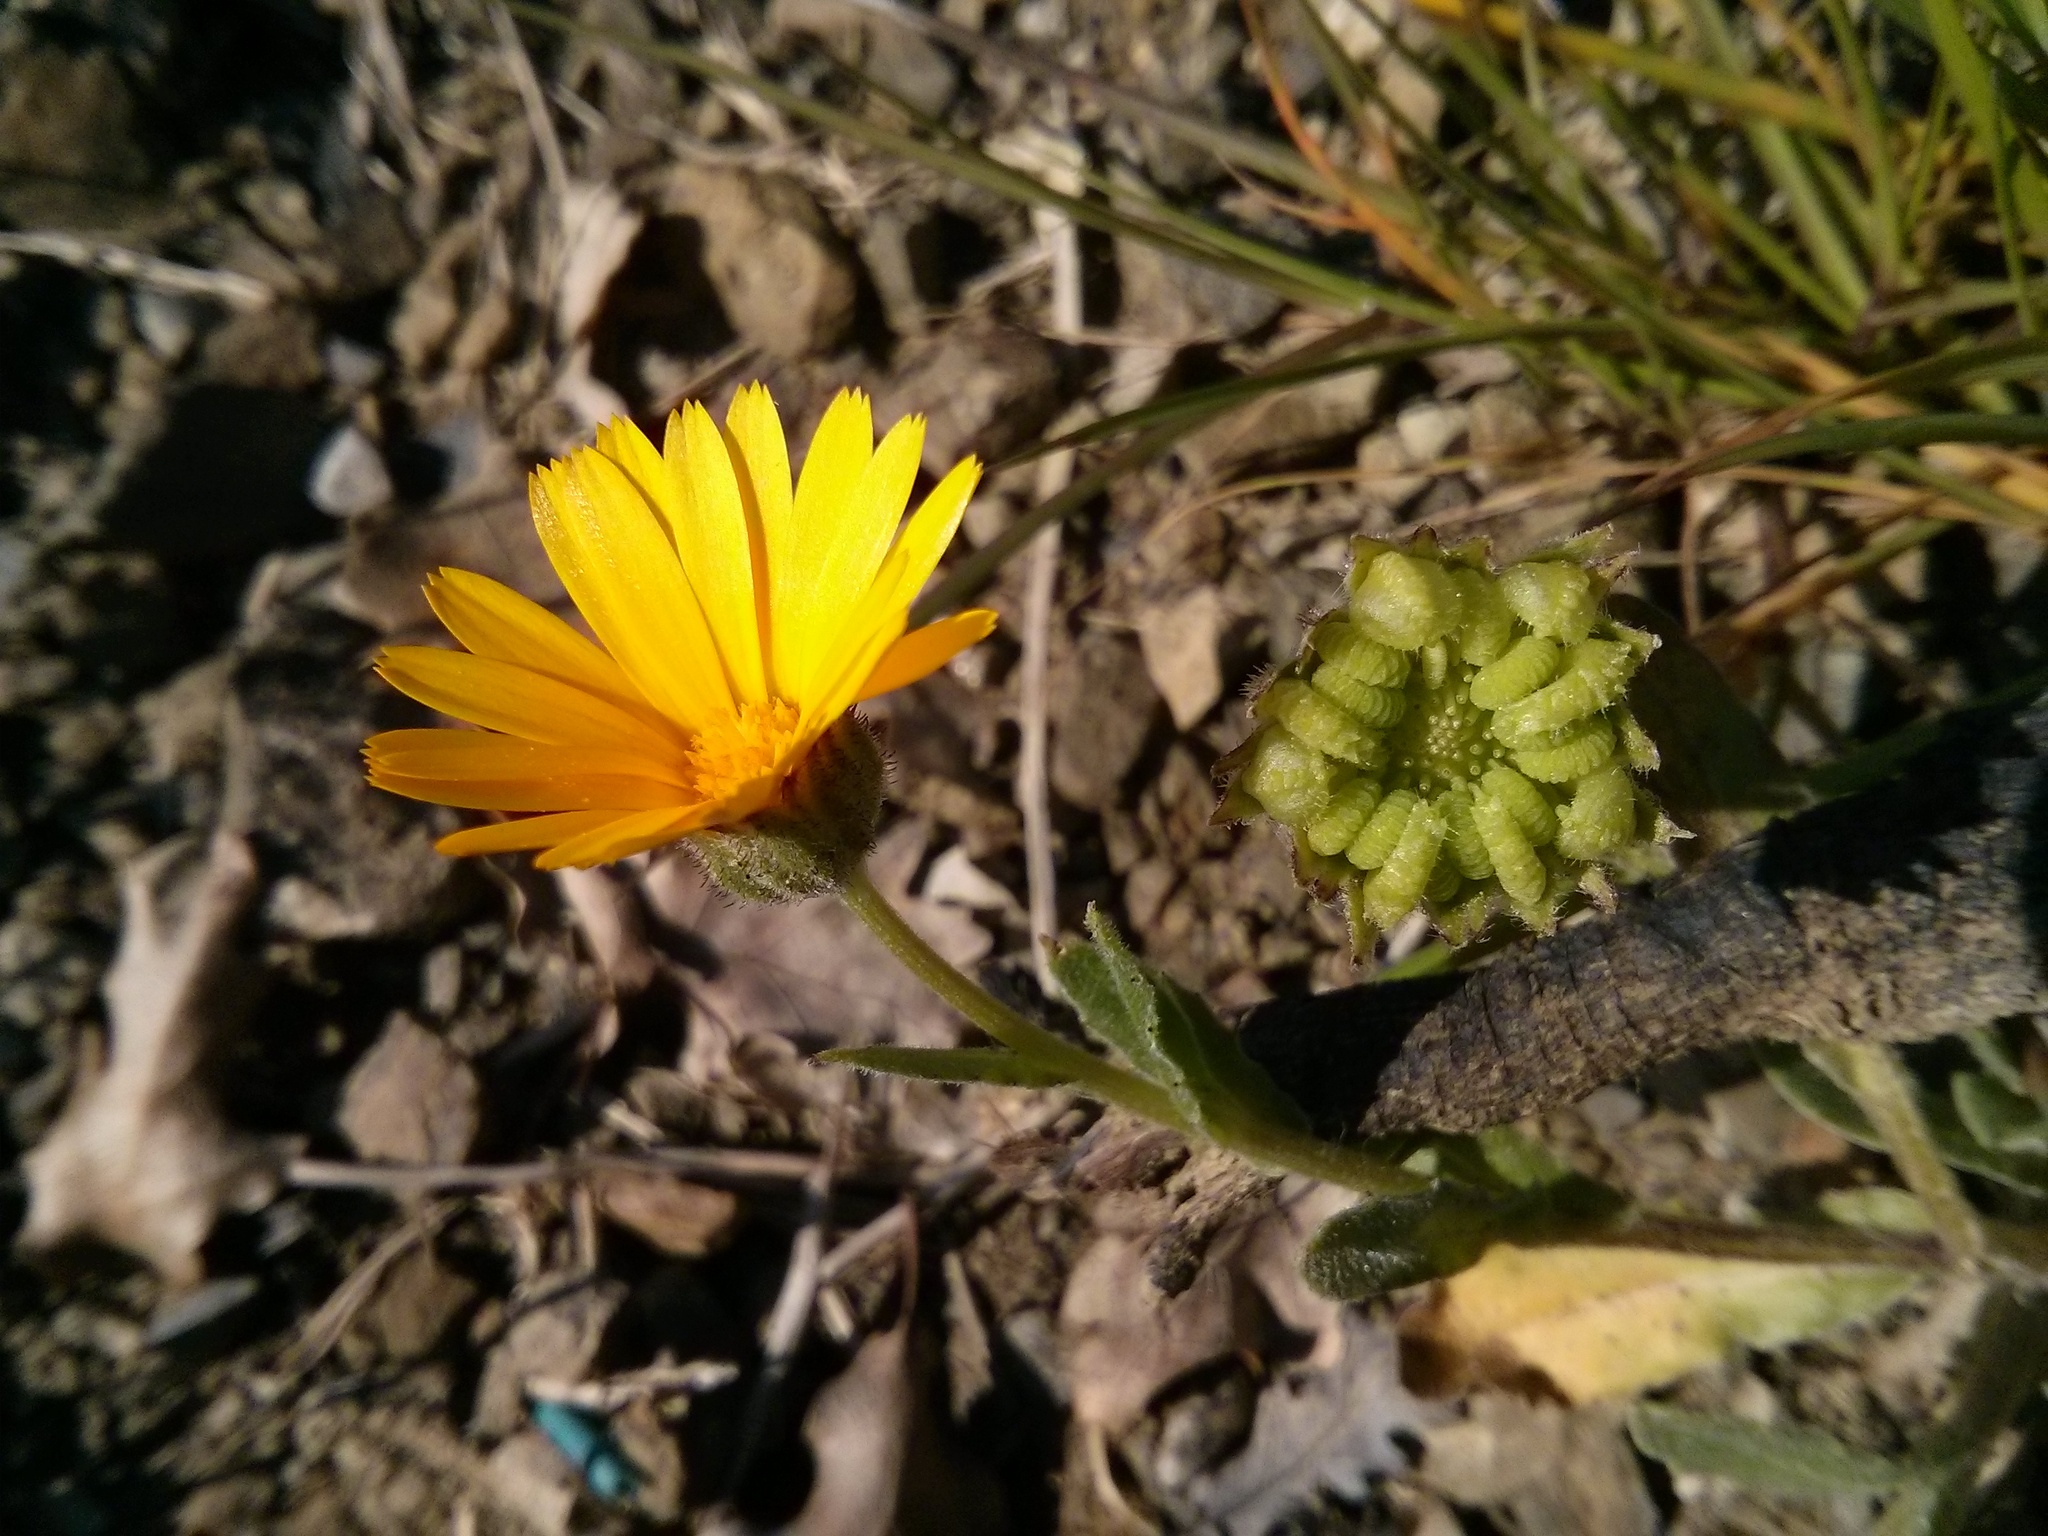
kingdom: Plantae
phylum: Tracheophyta
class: Magnoliopsida
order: Asterales
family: Asteraceae
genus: Calendula
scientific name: Calendula arvensis
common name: Field marigold
